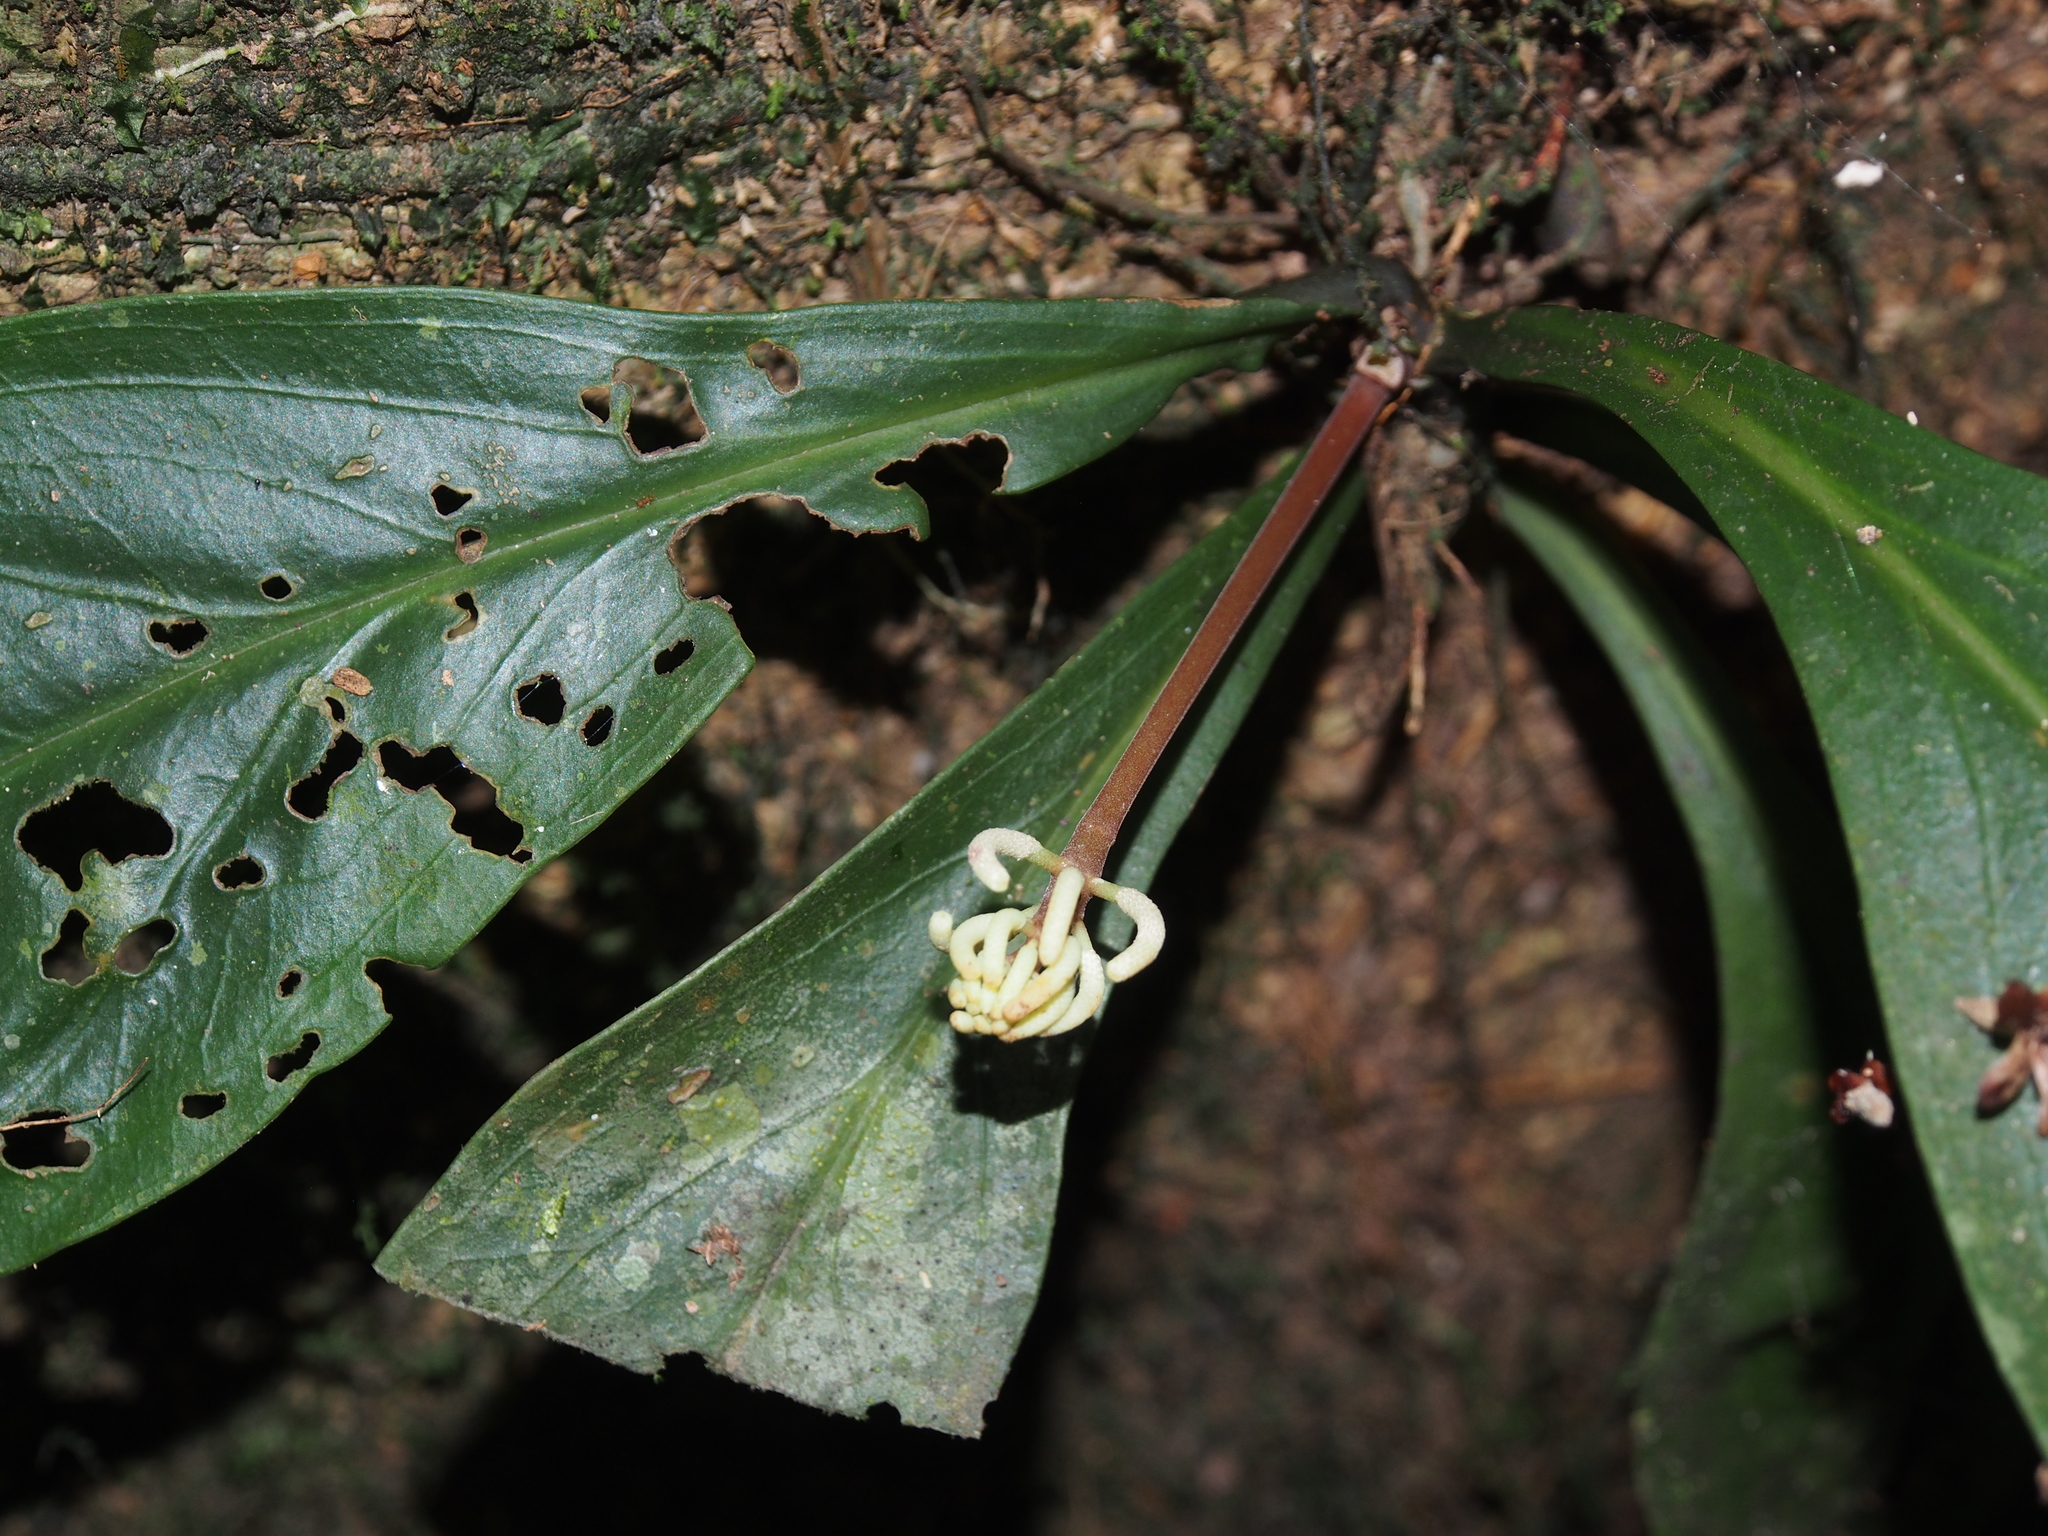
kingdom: Plantae
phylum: Tracheophyta
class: Magnoliopsida
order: Piperales
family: Piperaceae
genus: Peperomia
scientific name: Peperomia pernambucensis
